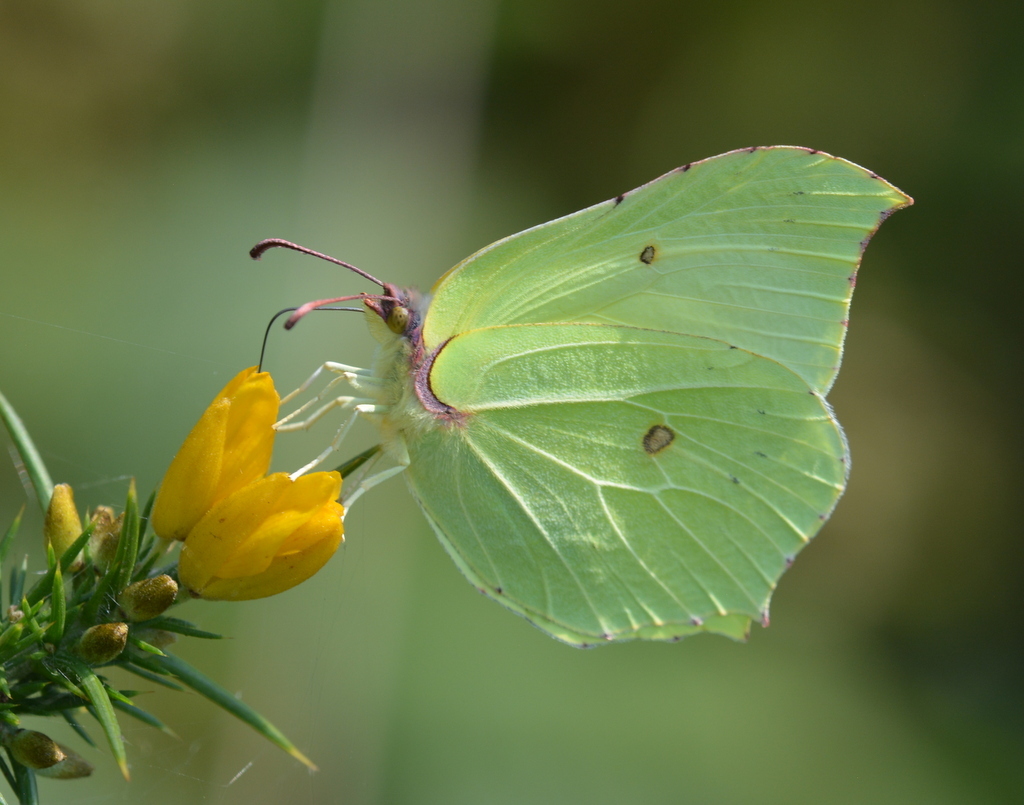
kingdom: Animalia
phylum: Arthropoda
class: Insecta
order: Lepidoptera
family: Pieridae
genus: Gonepteryx
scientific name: Gonepteryx rhamni
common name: Brimstone
